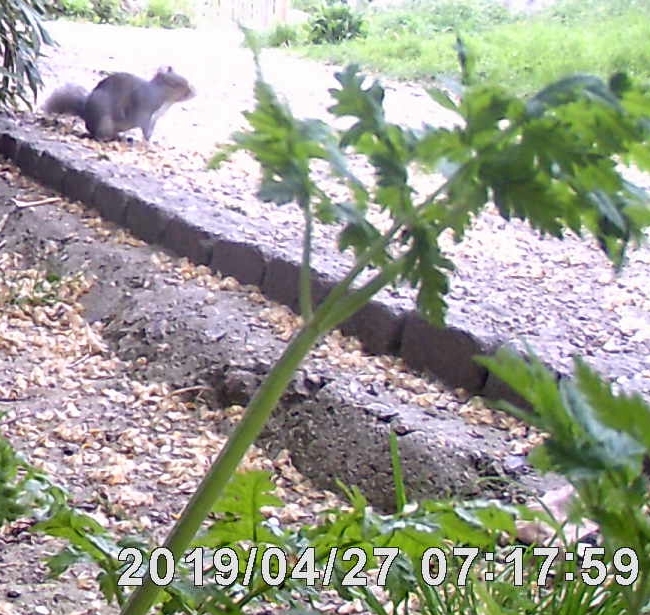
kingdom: Animalia
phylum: Chordata
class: Mammalia
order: Rodentia
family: Sciuridae
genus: Sciurus
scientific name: Sciurus carolinensis
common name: Eastern gray squirrel
